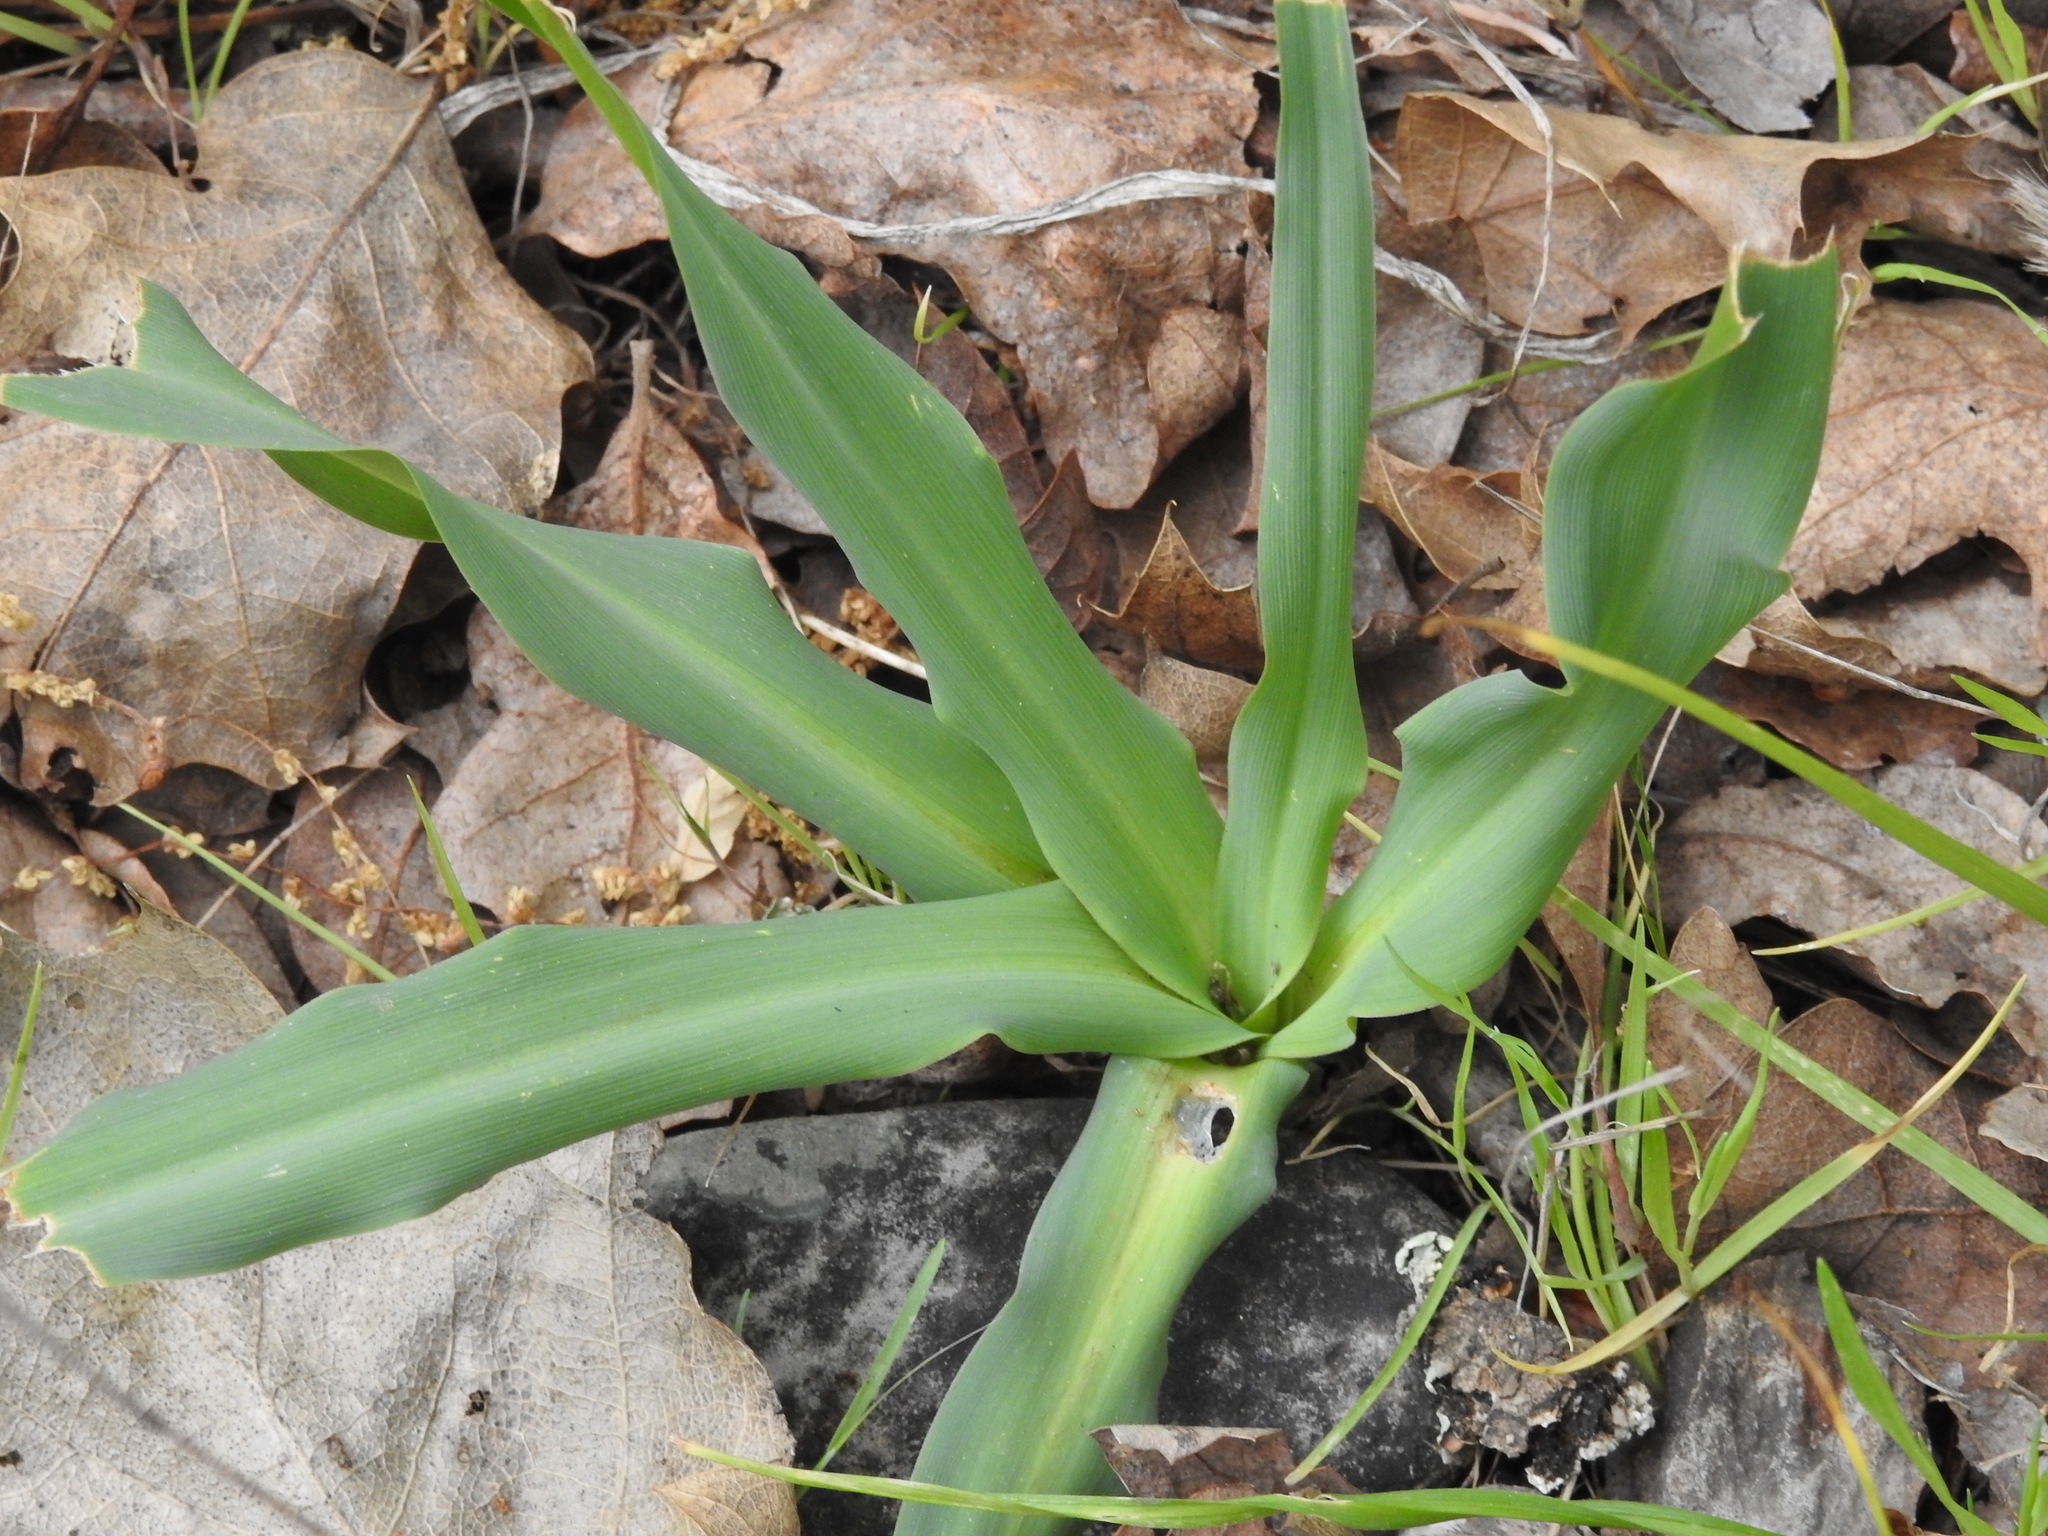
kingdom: Plantae
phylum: Tracheophyta
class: Liliopsida
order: Asparagales
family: Asparagaceae
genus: Chlorogalum
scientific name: Chlorogalum pomeridianum
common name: Amole
